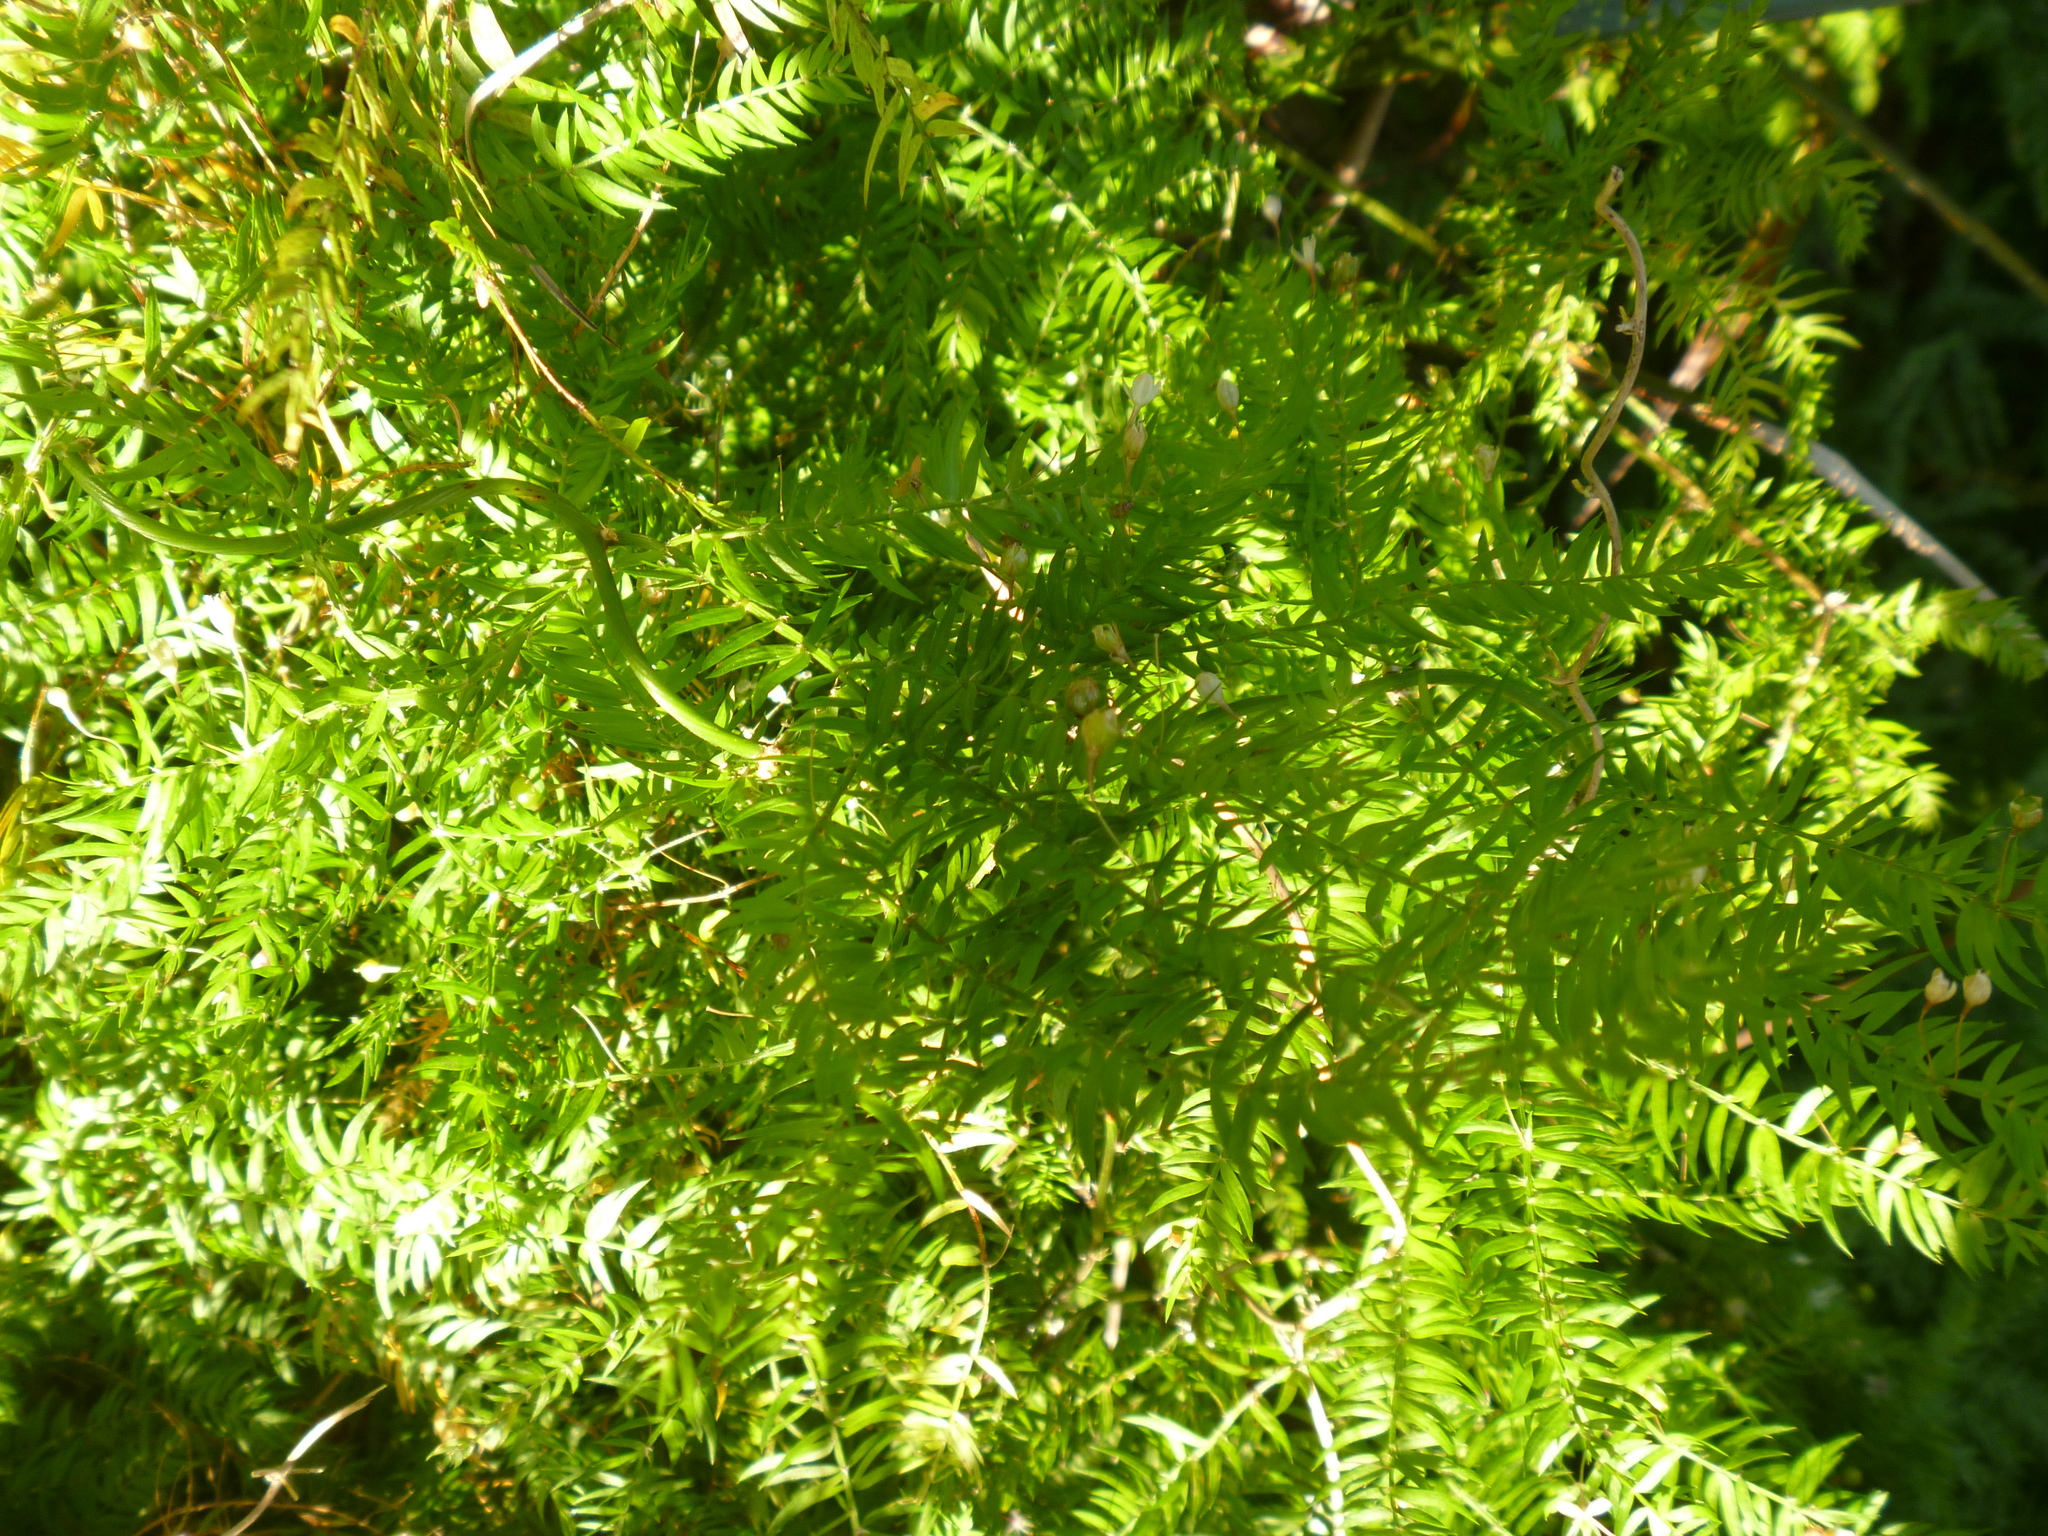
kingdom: Plantae
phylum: Tracheophyta
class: Liliopsida
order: Asparagales
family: Asparagaceae
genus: Asparagus
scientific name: Asparagus scandens
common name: Asparagus-fern
